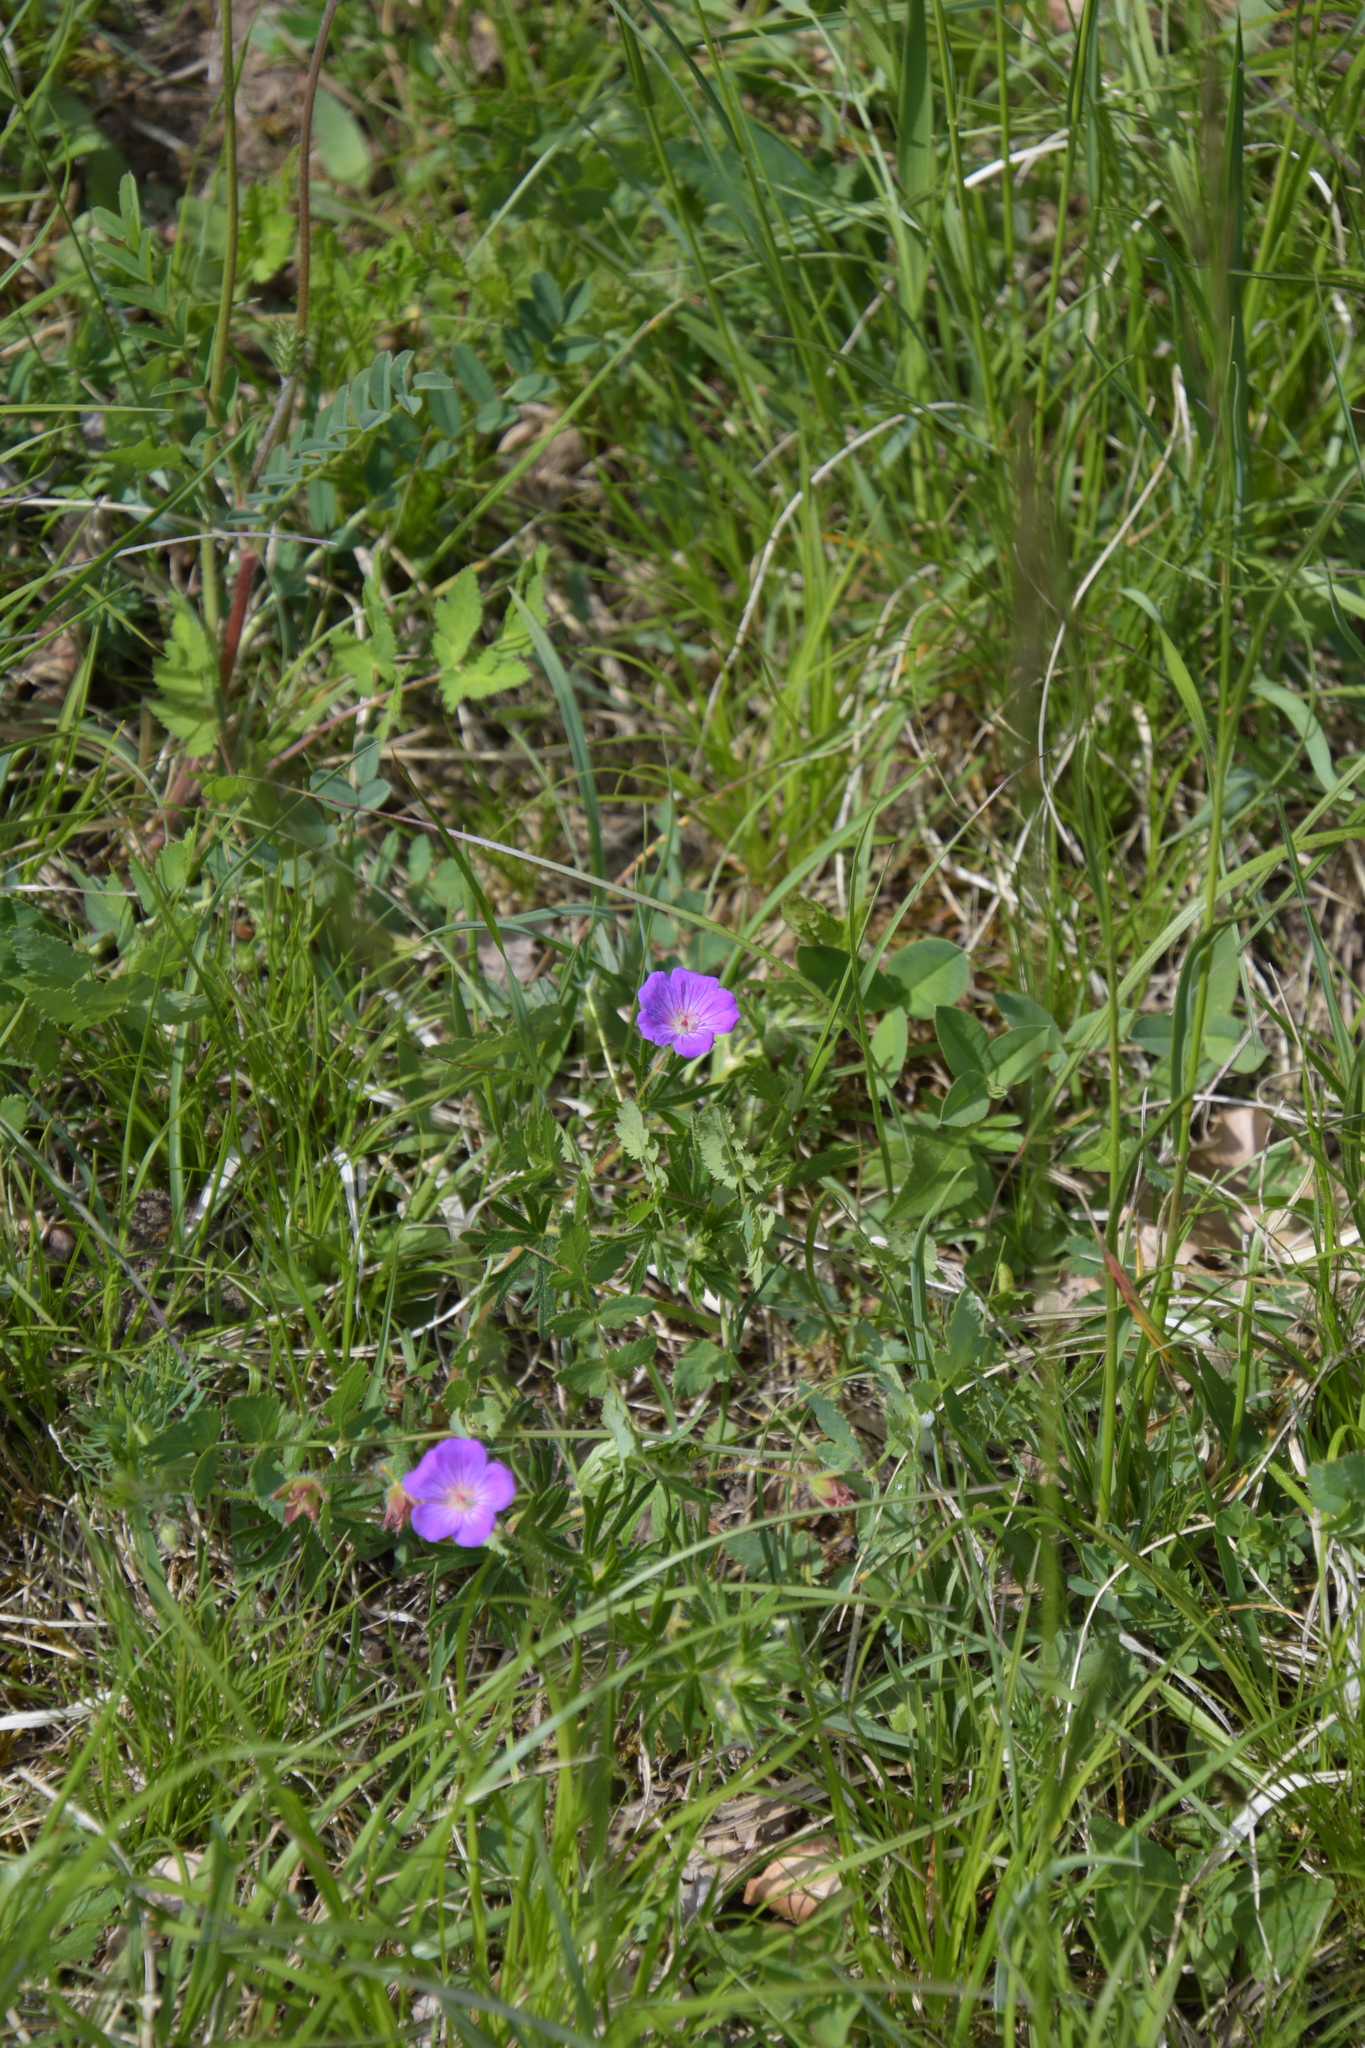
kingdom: Plantae
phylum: Tracheophyta
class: Magnoliopsida
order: Geraniales
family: Geraniaceae
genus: Geranium
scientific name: Geranium sanguineum
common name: Bloody crane's-bill
